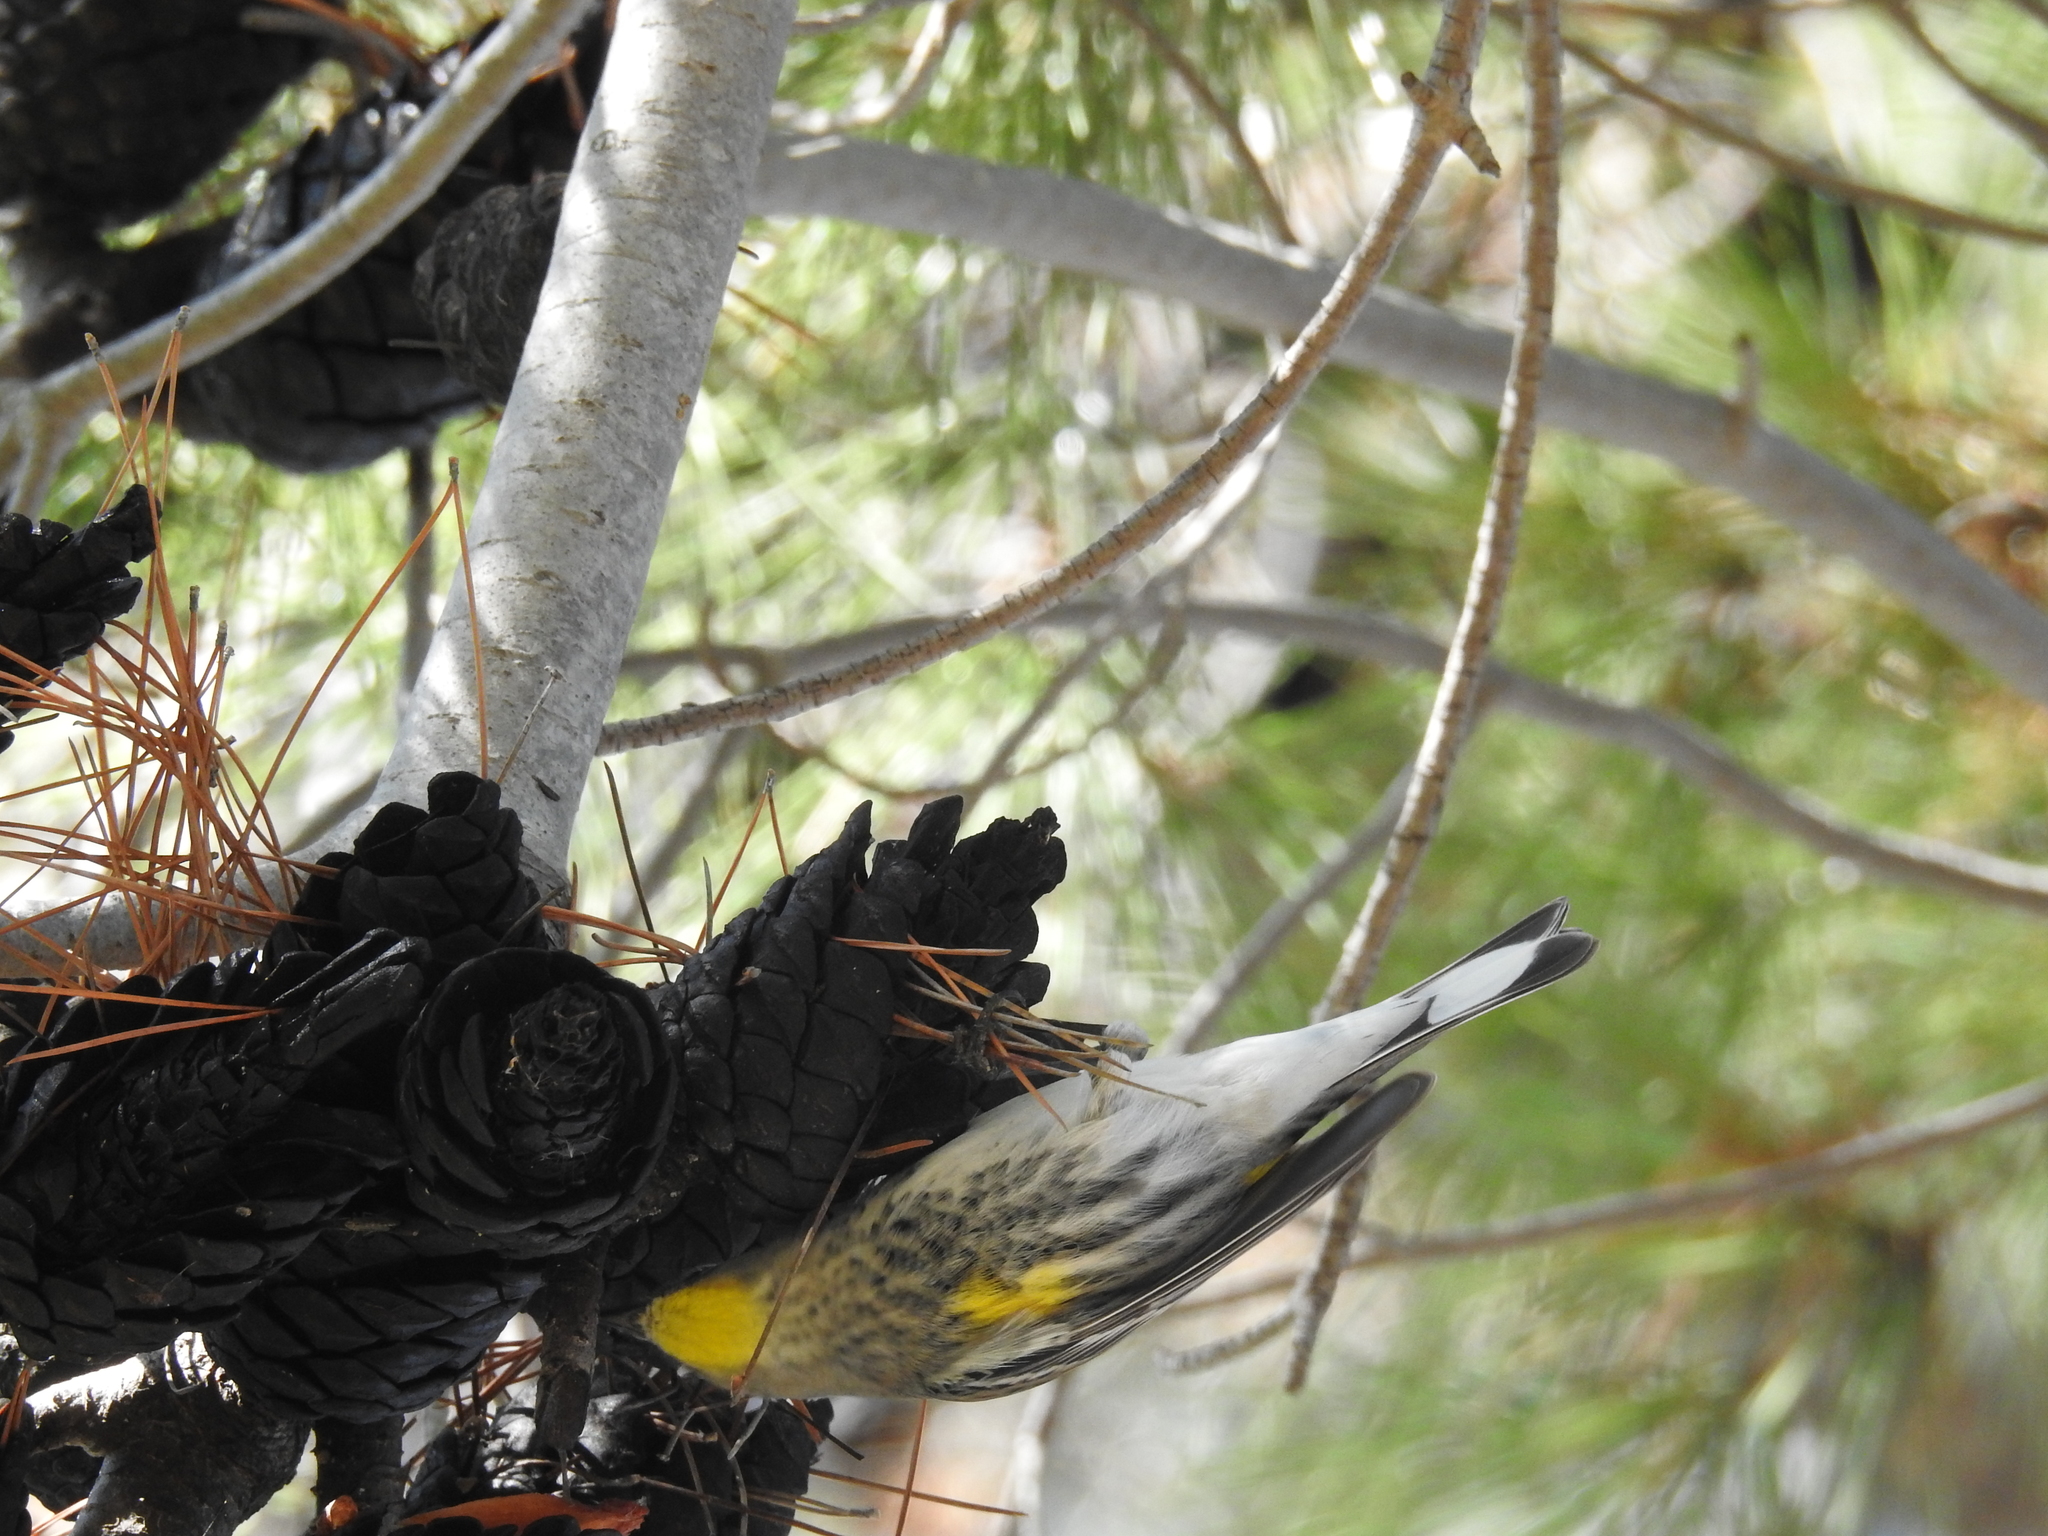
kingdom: Animalia
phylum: Chordata
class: Aves
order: Passeriformes
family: Parulidae
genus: Setophaga
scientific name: Setophaga coronata
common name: Myrtle warbler
